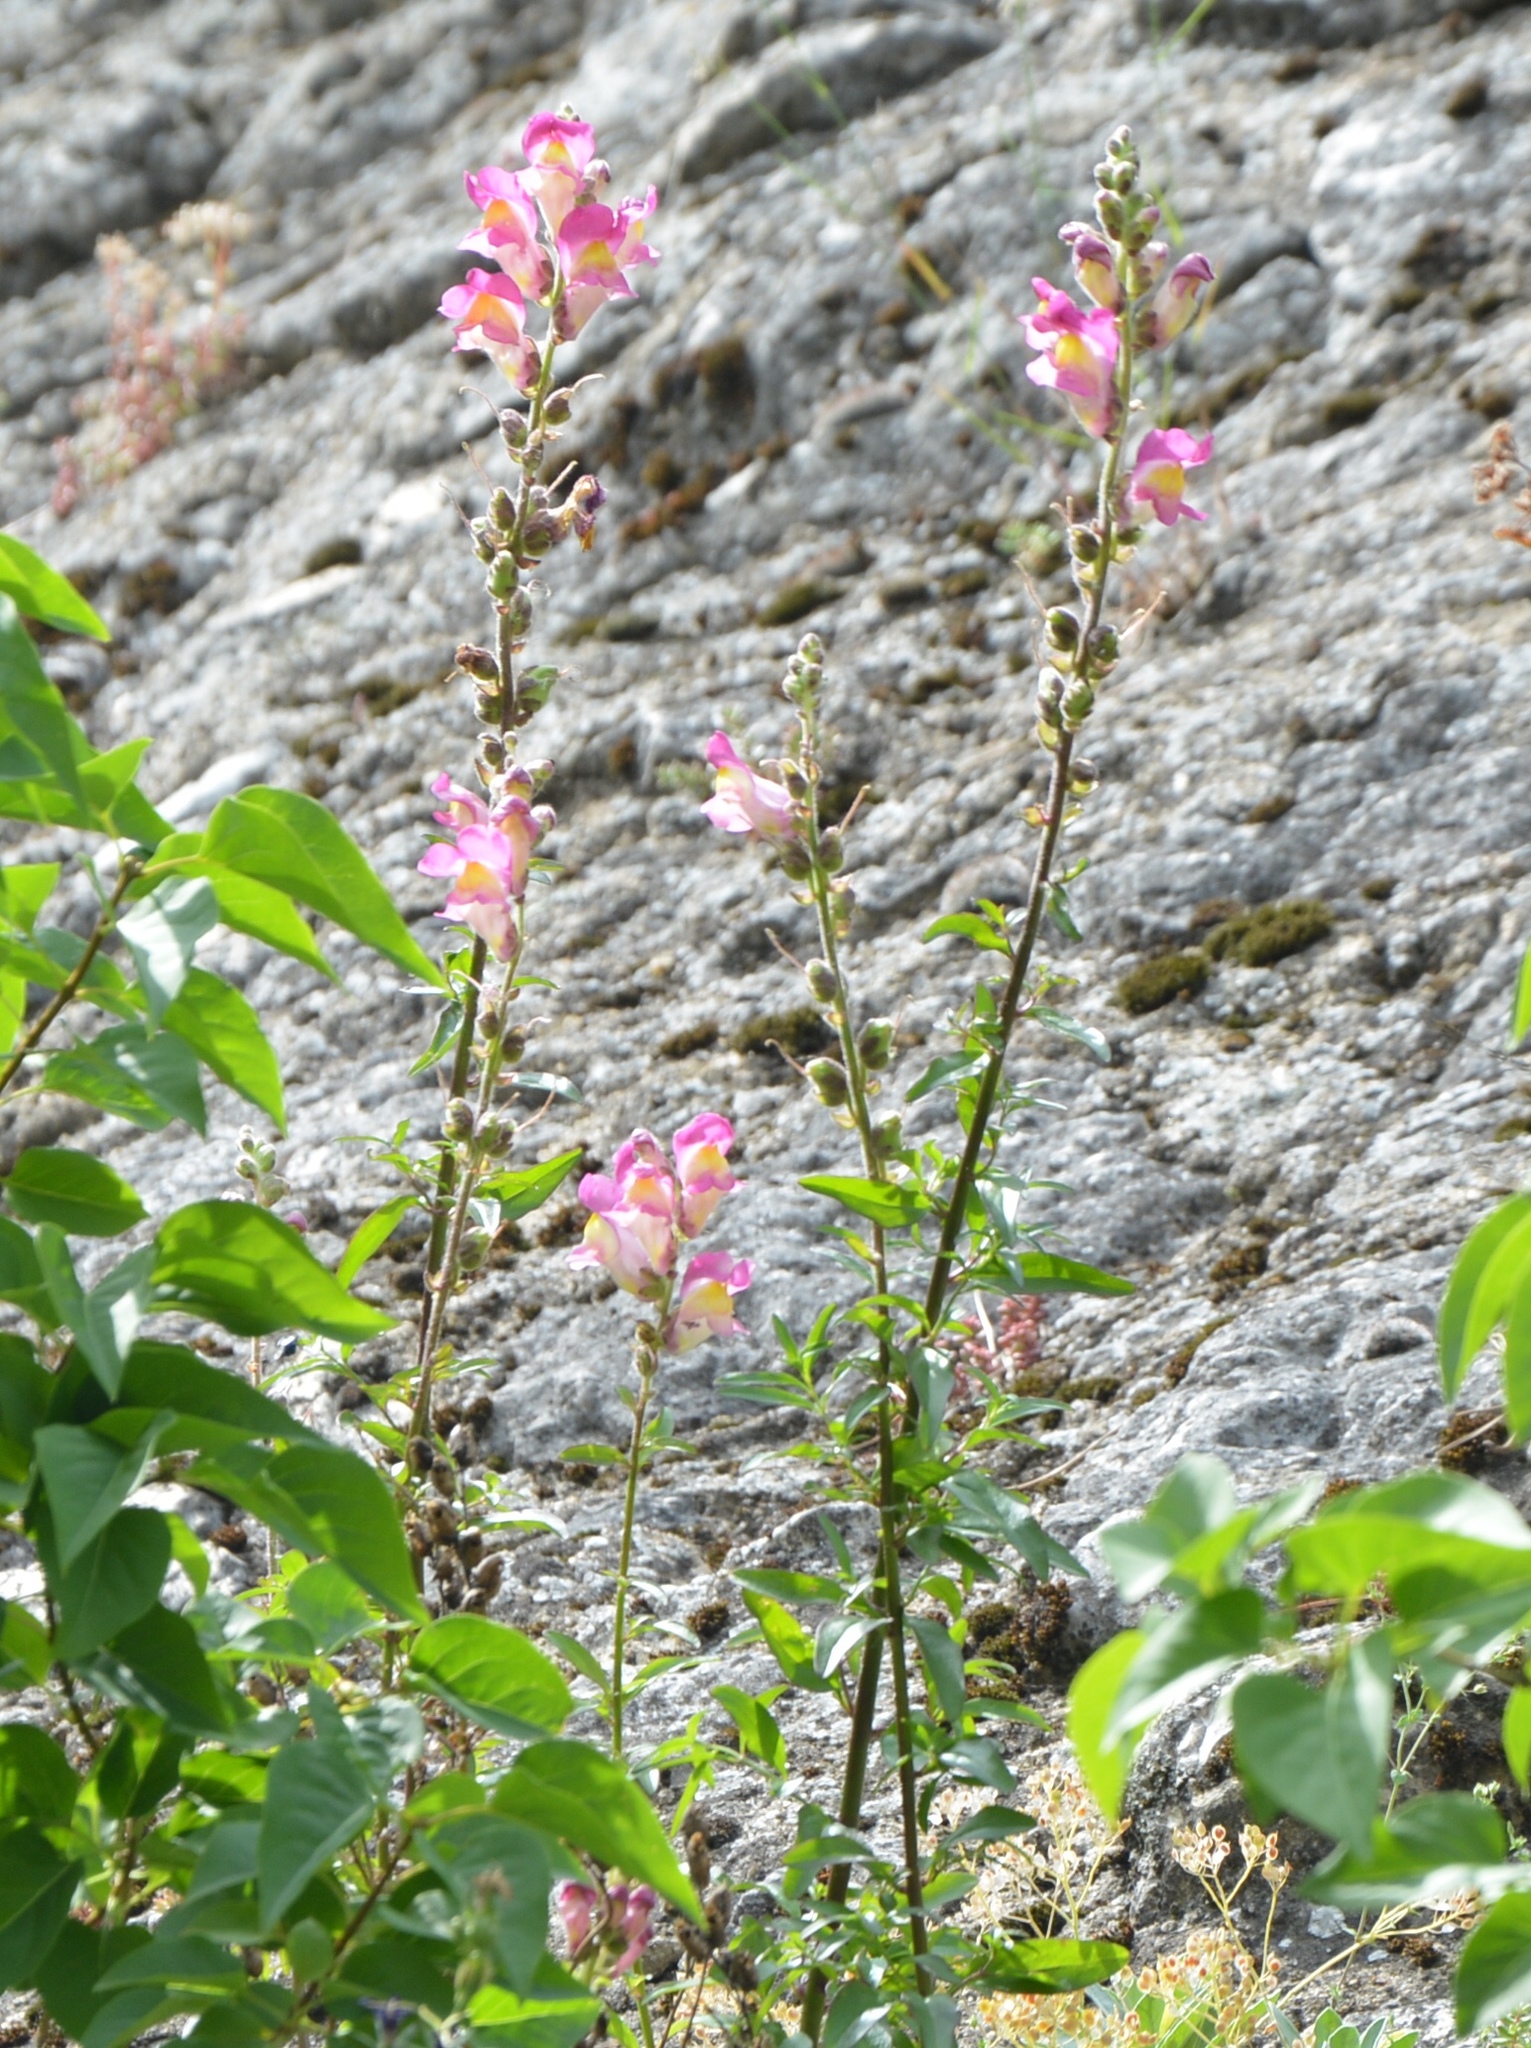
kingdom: Plantae
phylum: Tracheophyta
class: Magnoliopsida
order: Lamiales
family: Plantaginaceae
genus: Antirrhinum
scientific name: Antirrhinum majus
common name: Snapdragon
